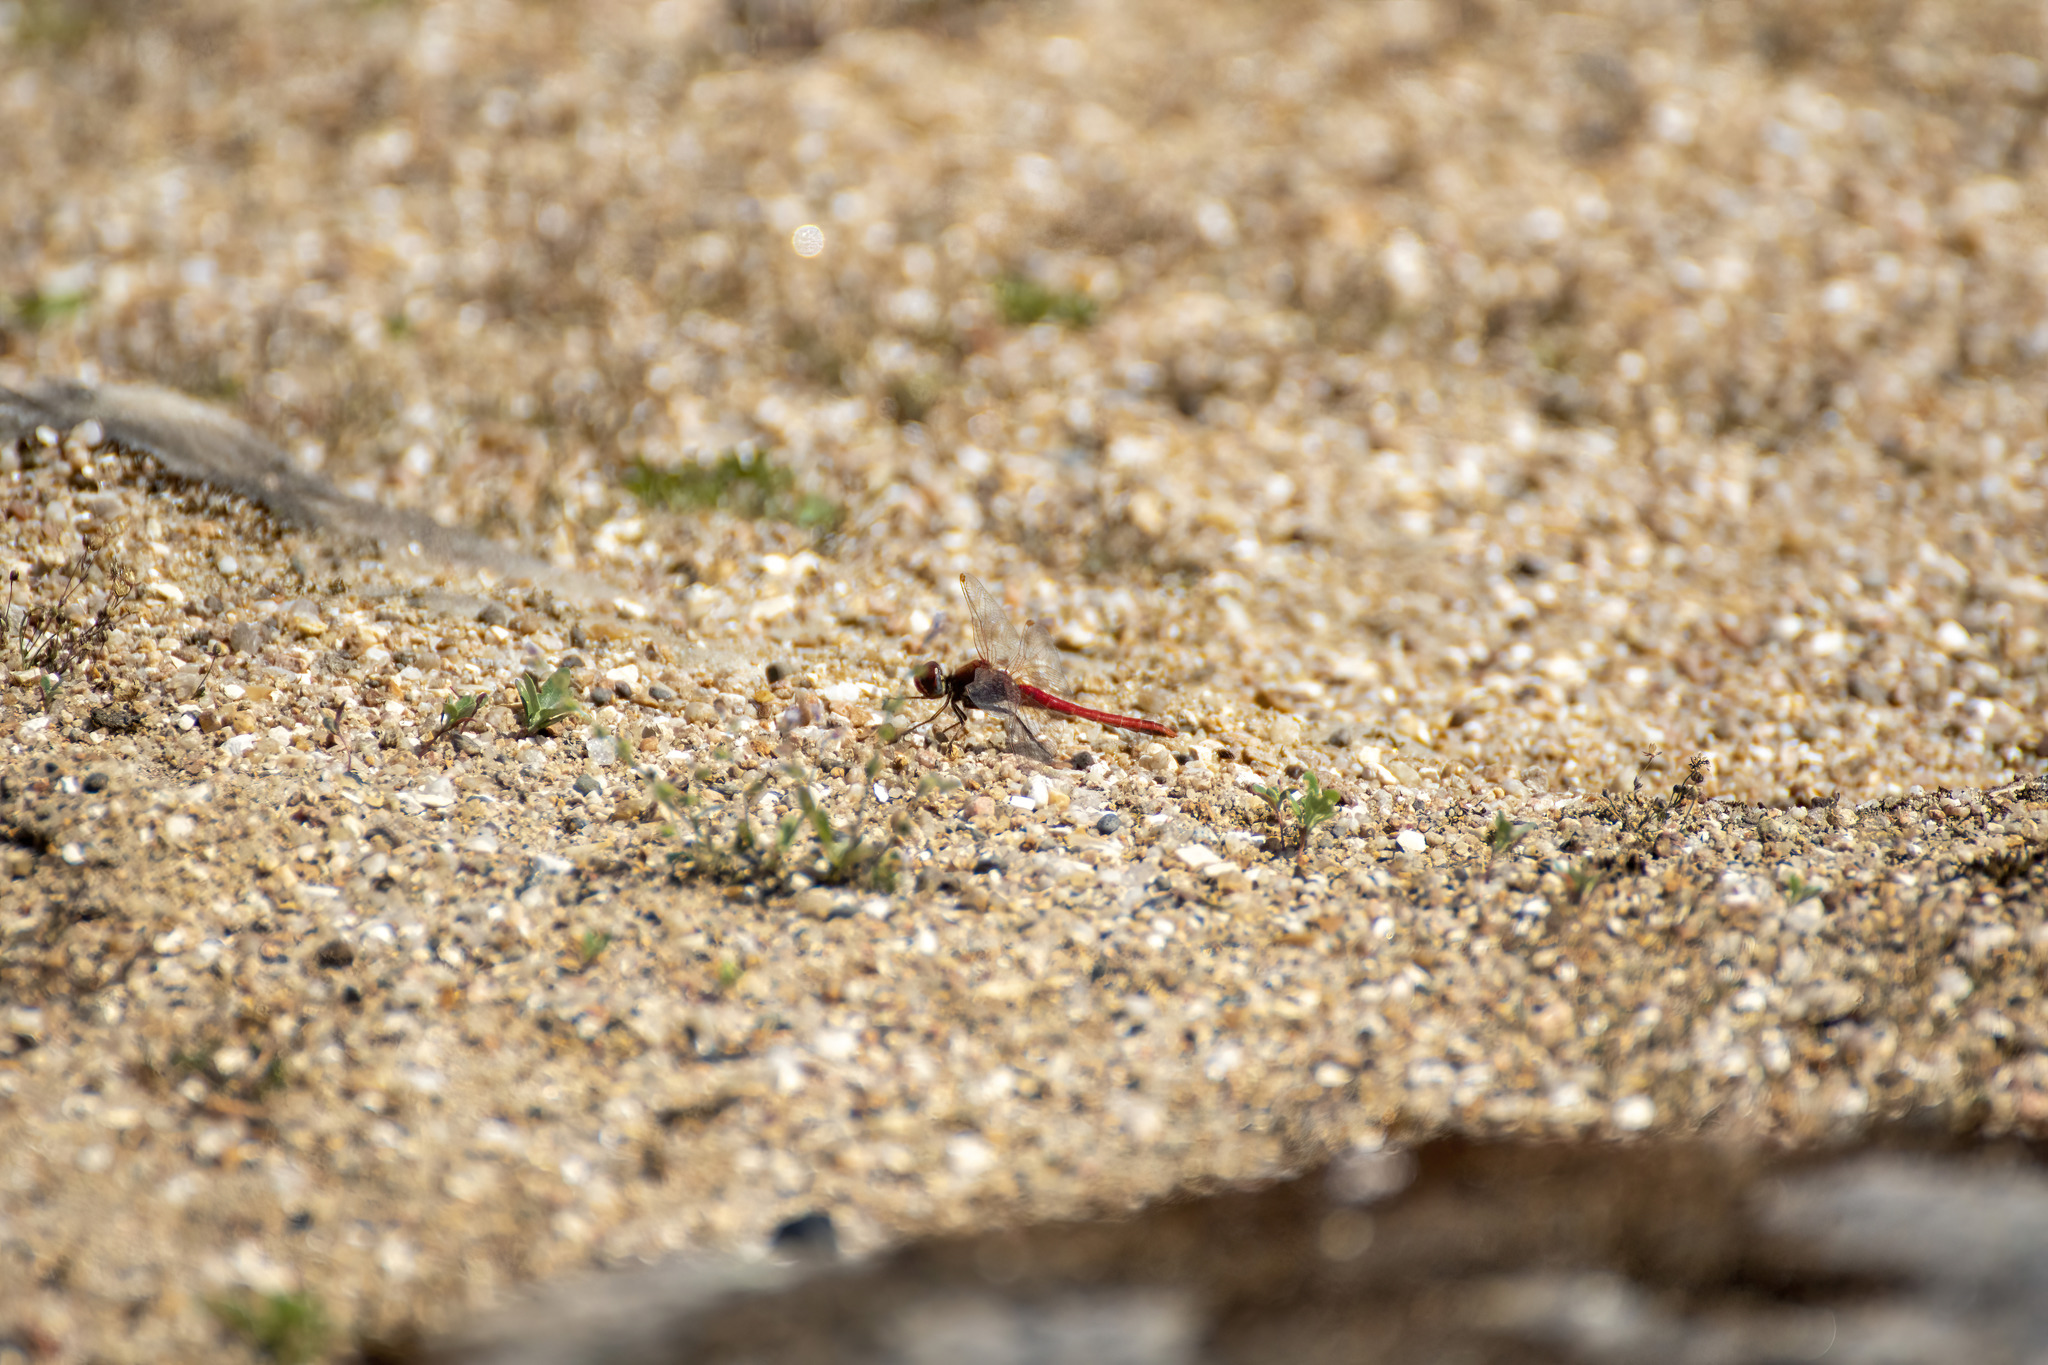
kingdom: Animalia
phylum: Arthropoda
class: Insecta
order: Odonata
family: Libellulidae
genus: Sympetrum
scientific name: Sympetrum fonscolombii
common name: Red-veined darter
